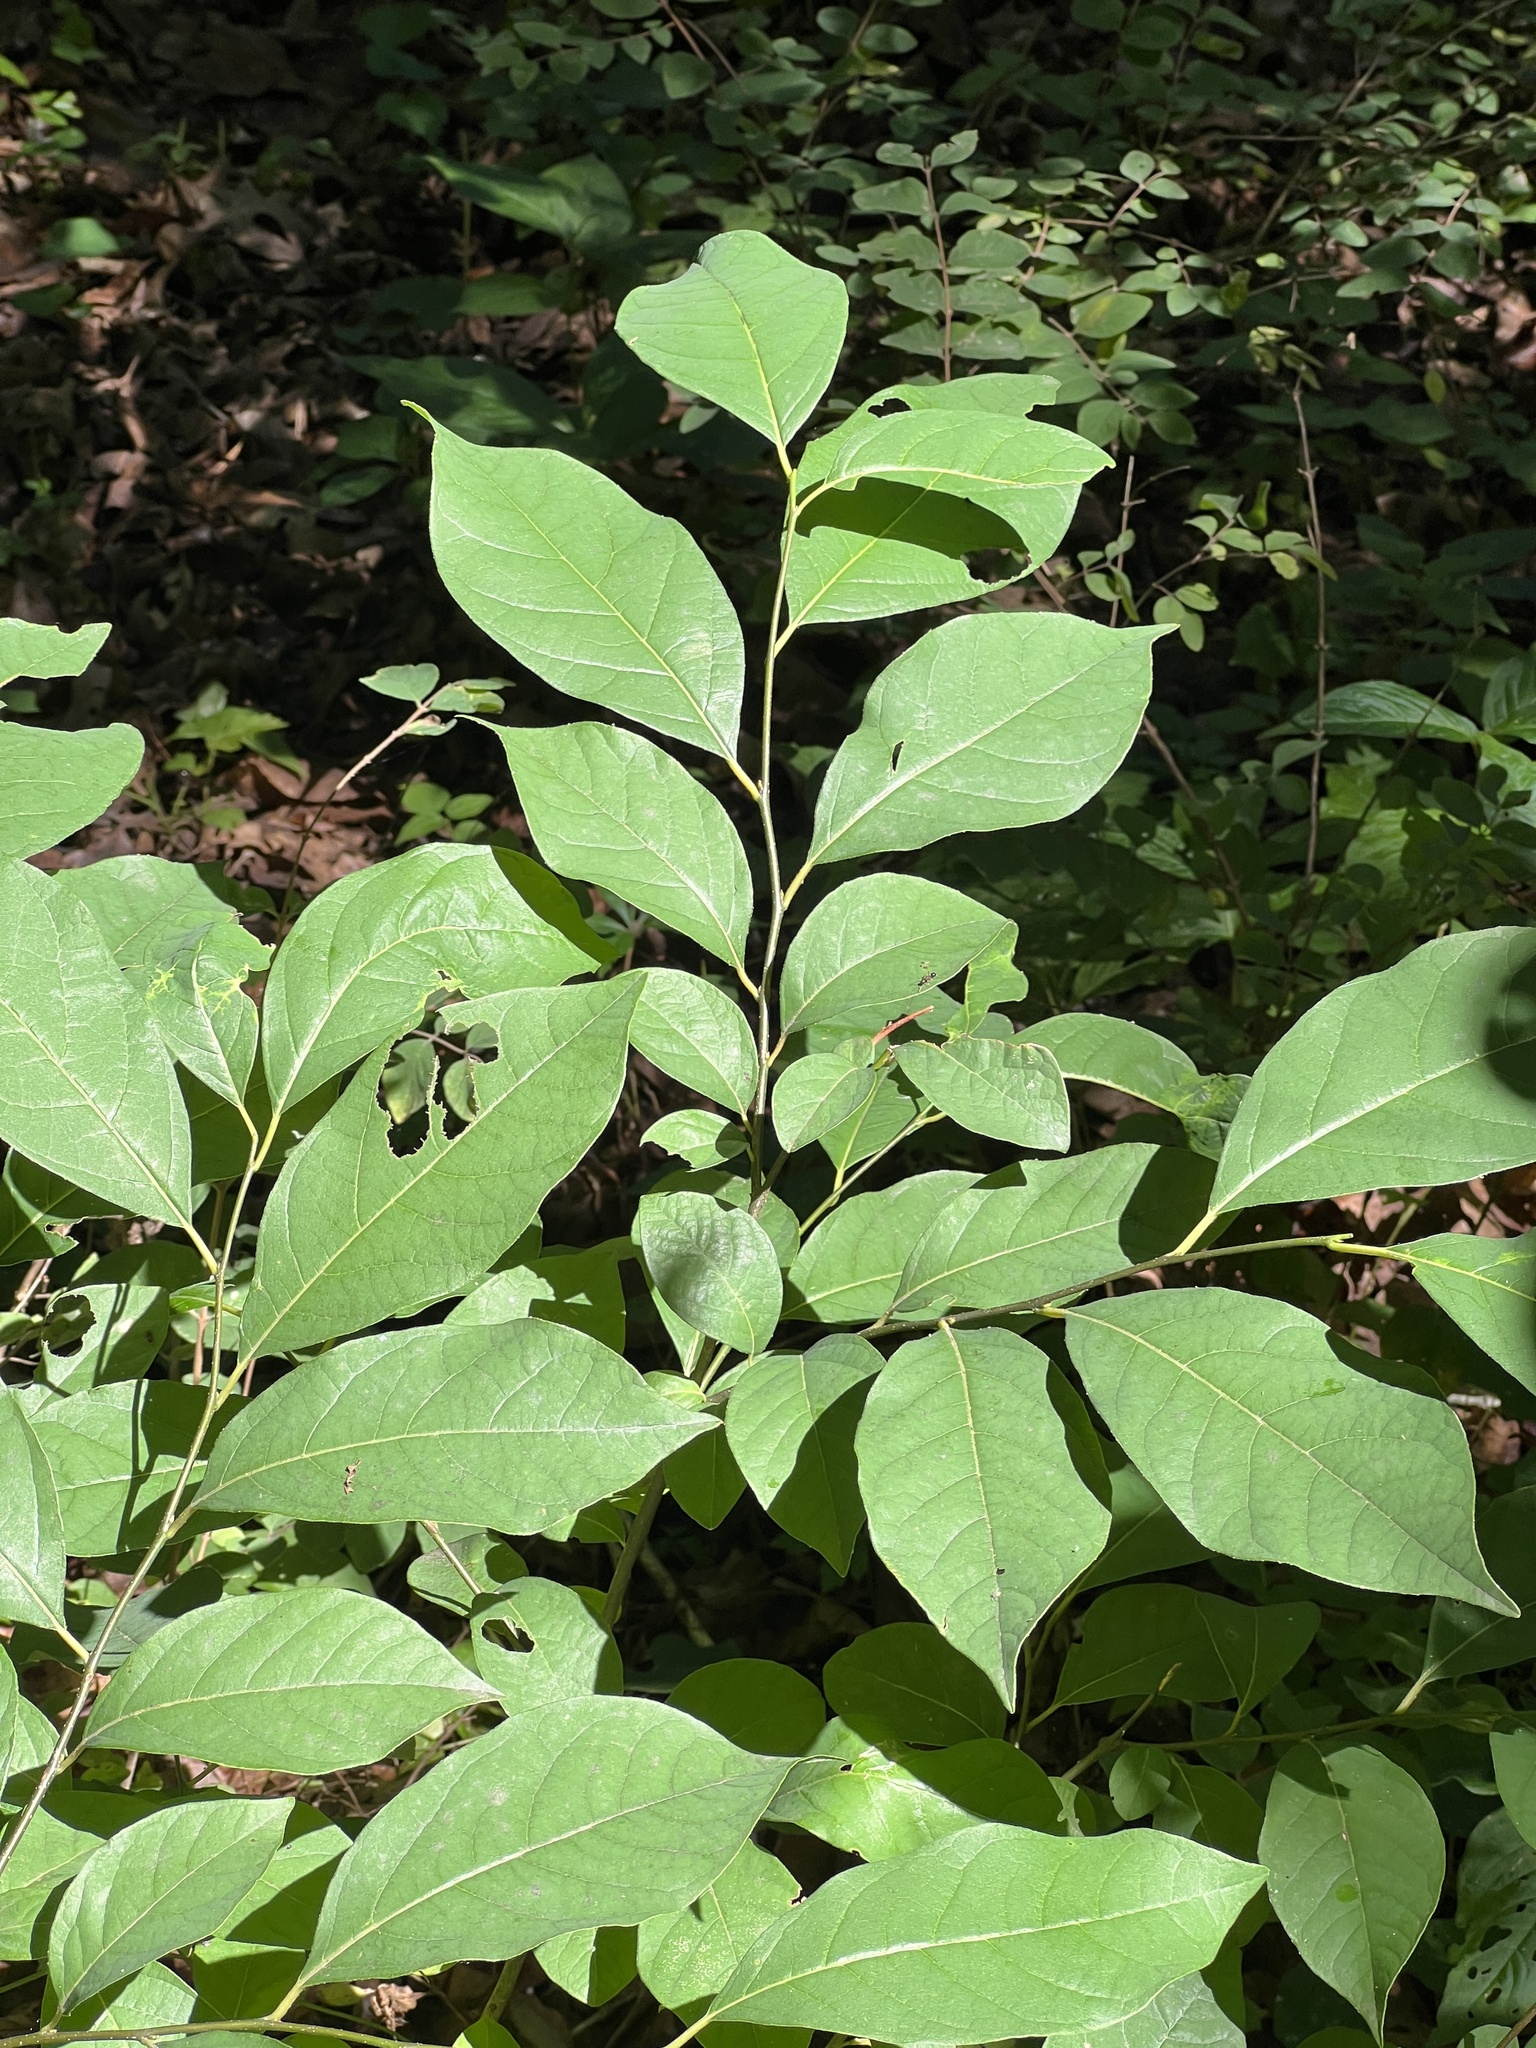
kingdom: Plantae
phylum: Tracheophyta
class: Magnoliopsida
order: Laurales
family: Lauraceae
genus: Lindera
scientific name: Lindera benzoin
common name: Spicebush
